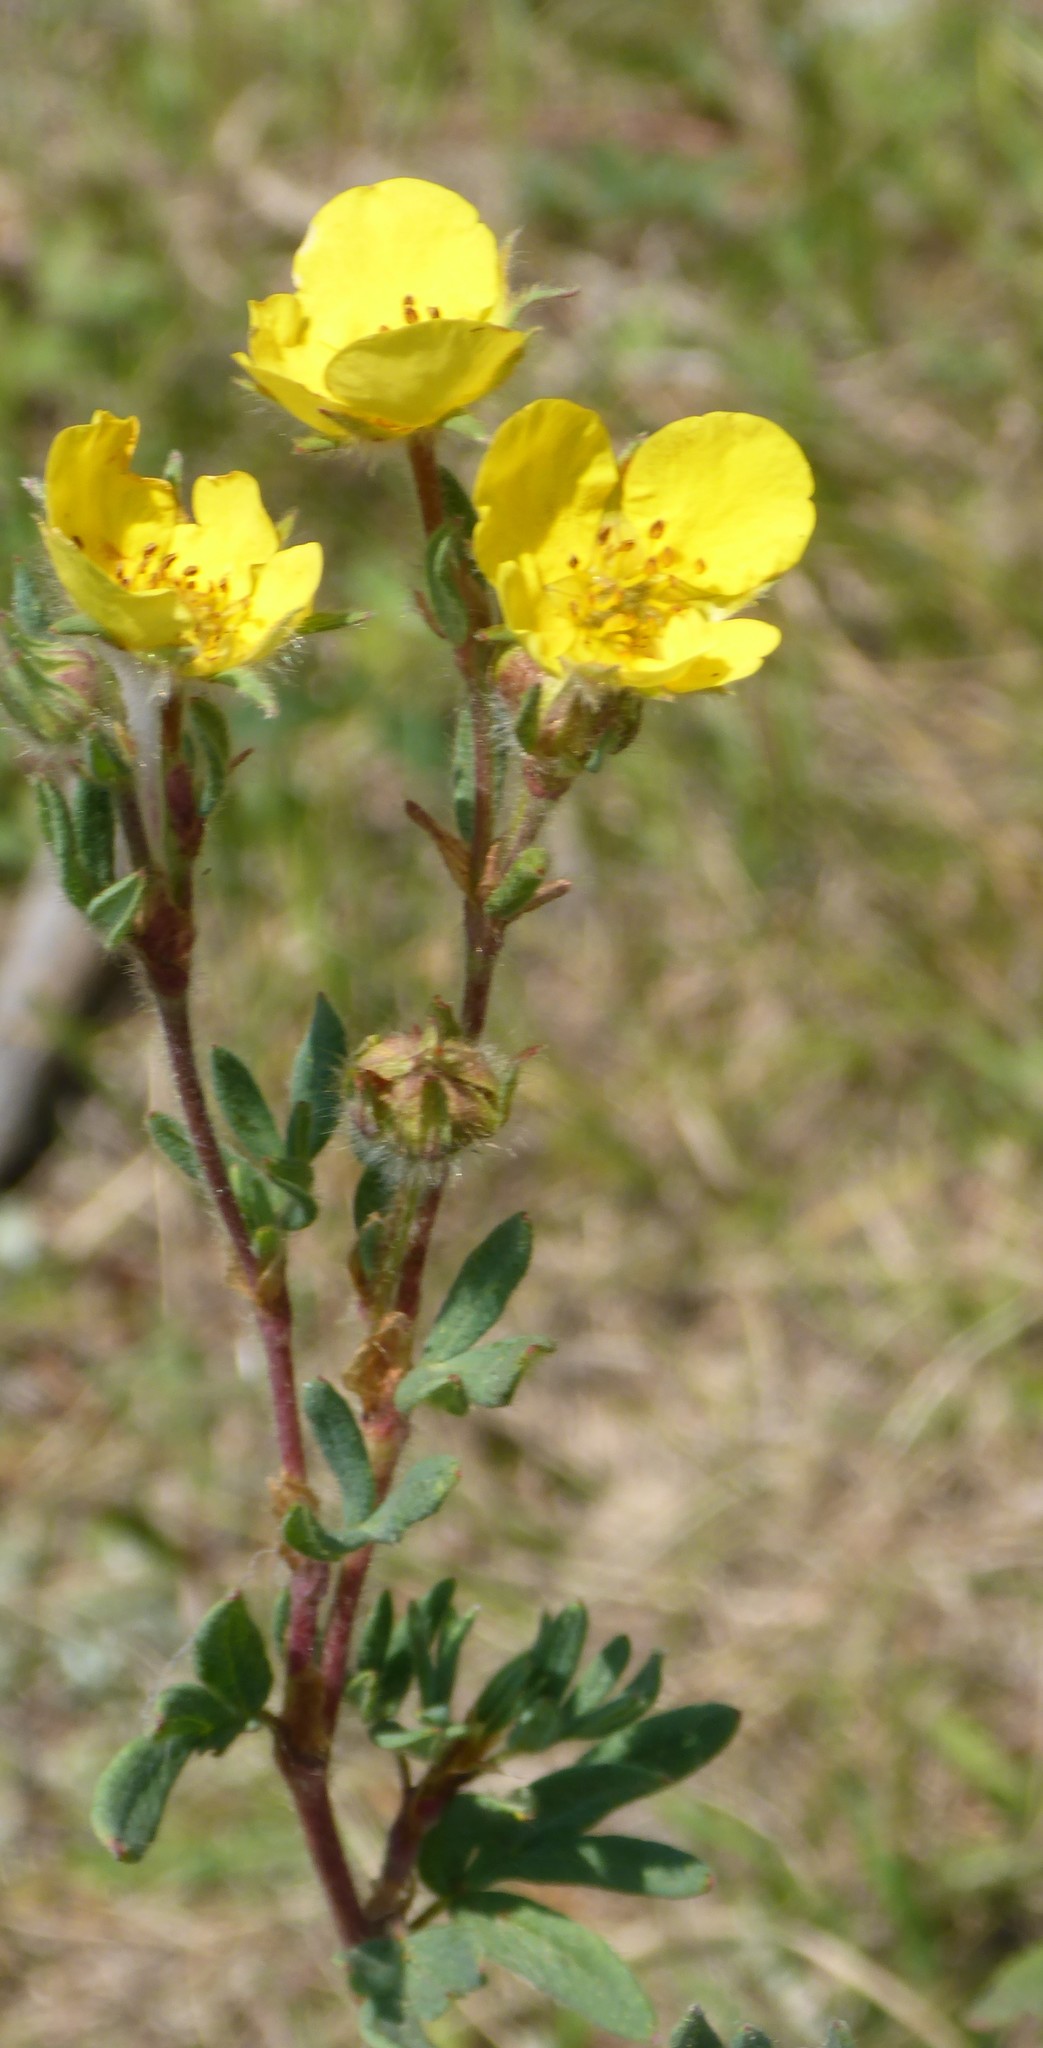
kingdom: Plantae
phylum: Tracheophyta
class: Magnoliopsida
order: Rosales
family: Rosaceae
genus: Dasiphora
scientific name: Dasiphora fruticosa
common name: Shrubby cinquefoil
